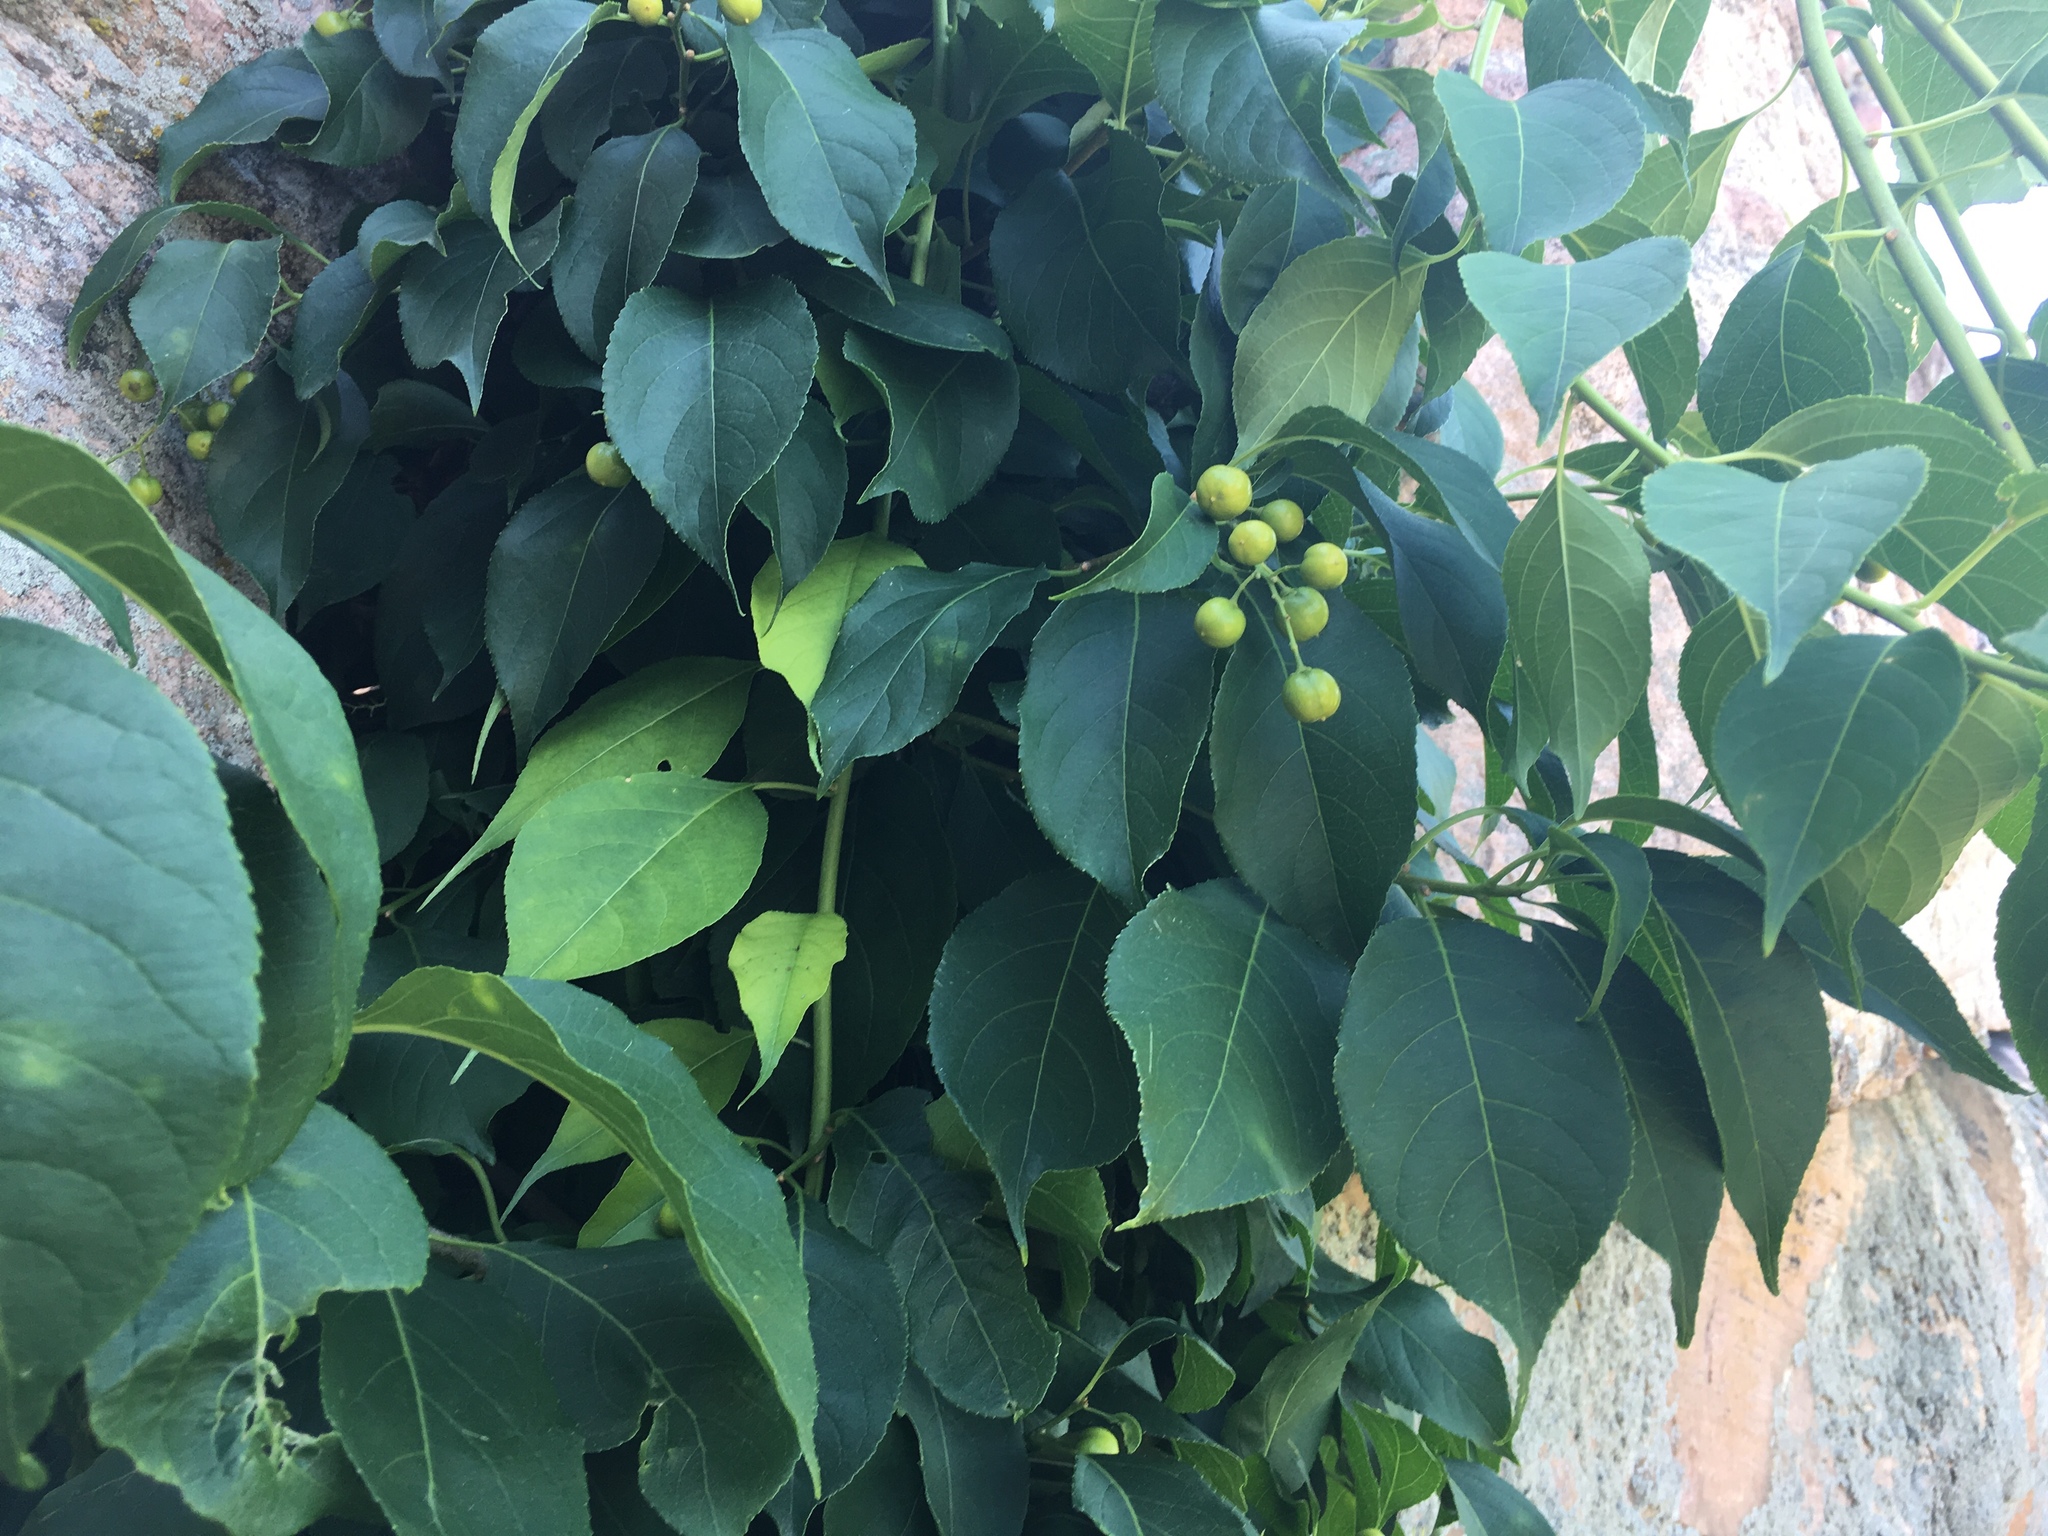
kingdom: Plantae
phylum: Tracheophyta
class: Magnoliopsida
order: Celastrales
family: Celastraceae
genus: Celastrus
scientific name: Celastrus scandens
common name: American bittersweet
